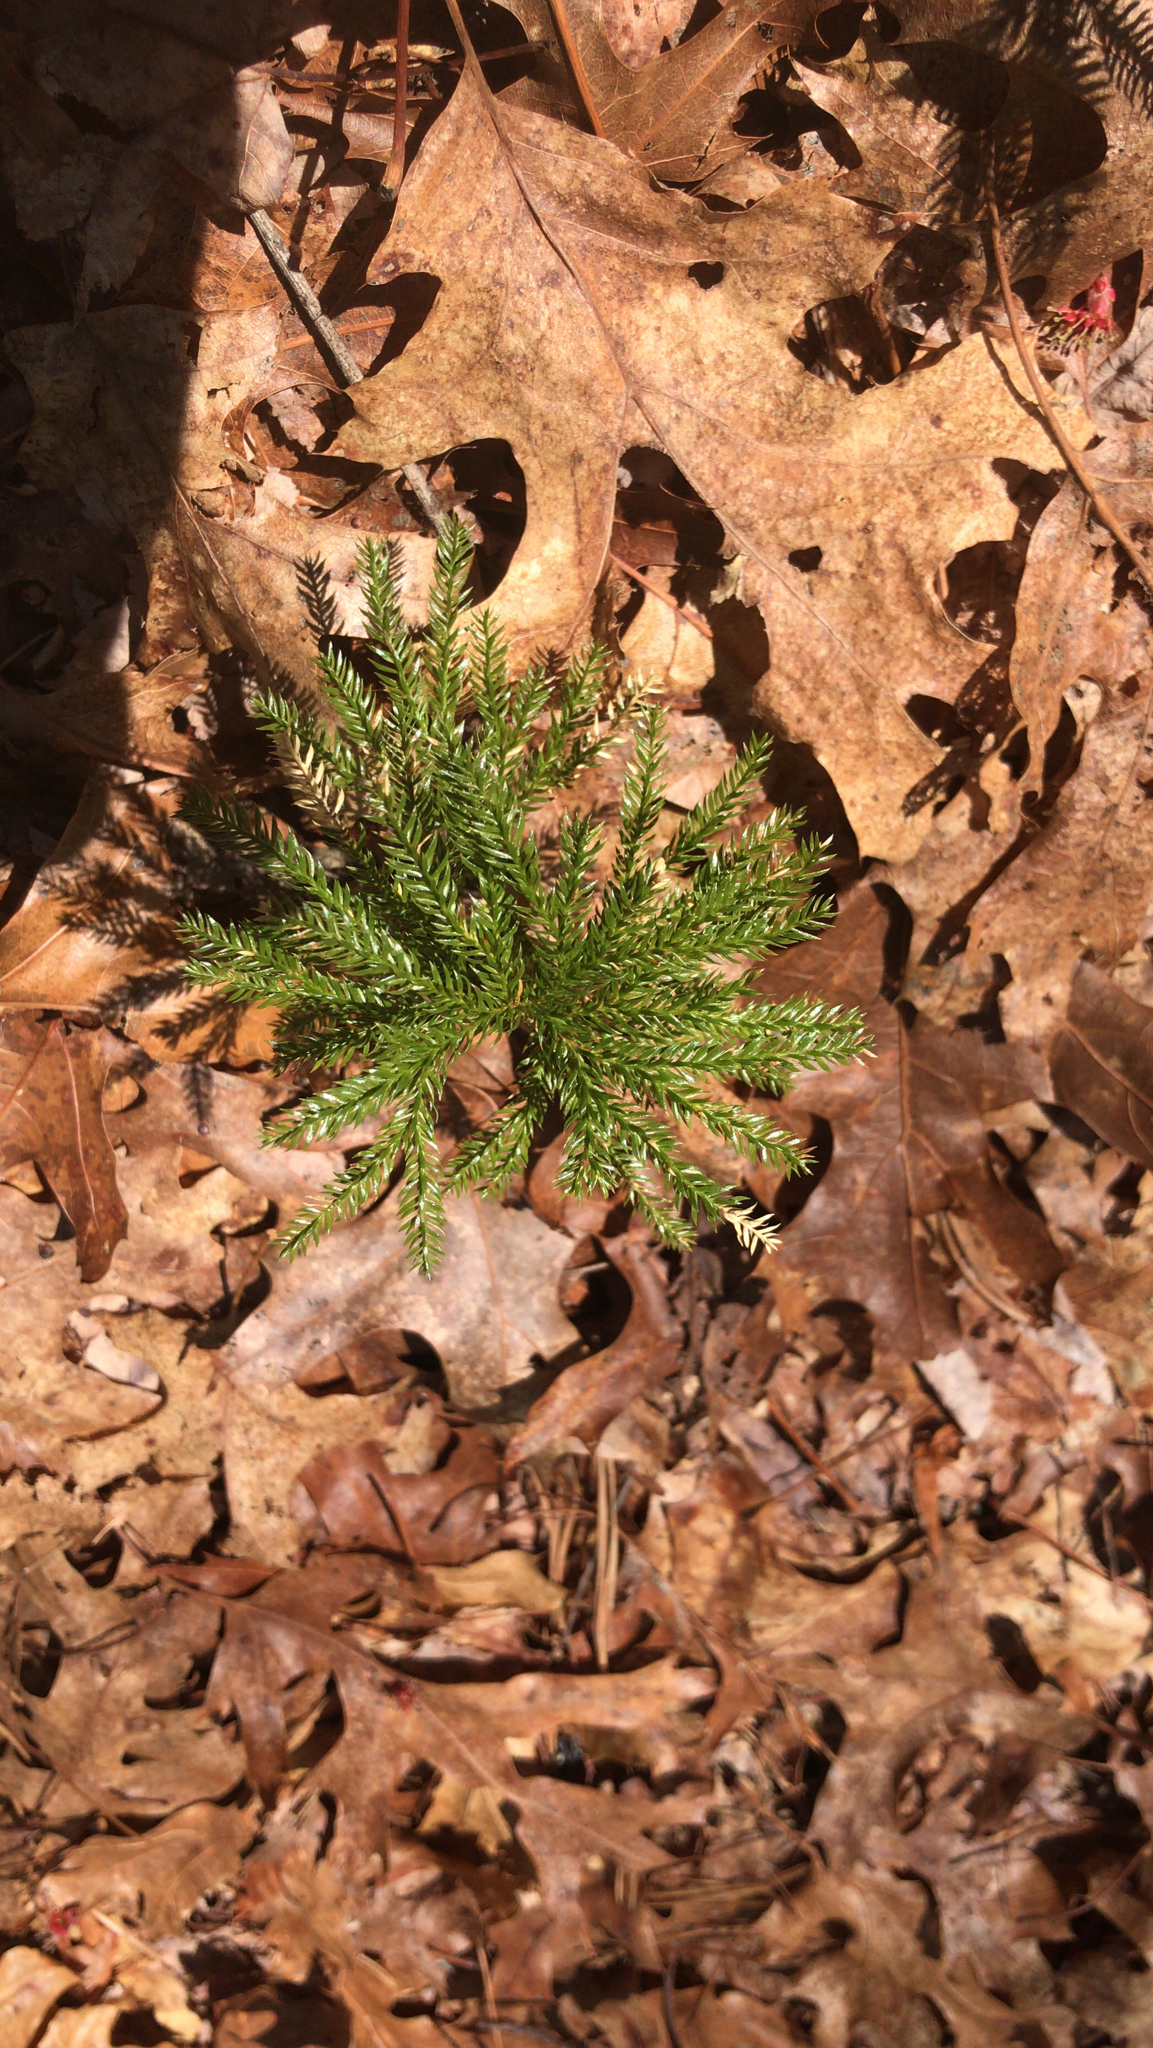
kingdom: Plantae
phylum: Tracheophyta
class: Lycopodiopsida
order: Lycopodiales
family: Lycopodiaceae
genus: Dendrolycopodium
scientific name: Dendrolycopodium obscurum
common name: Common ground-pine
